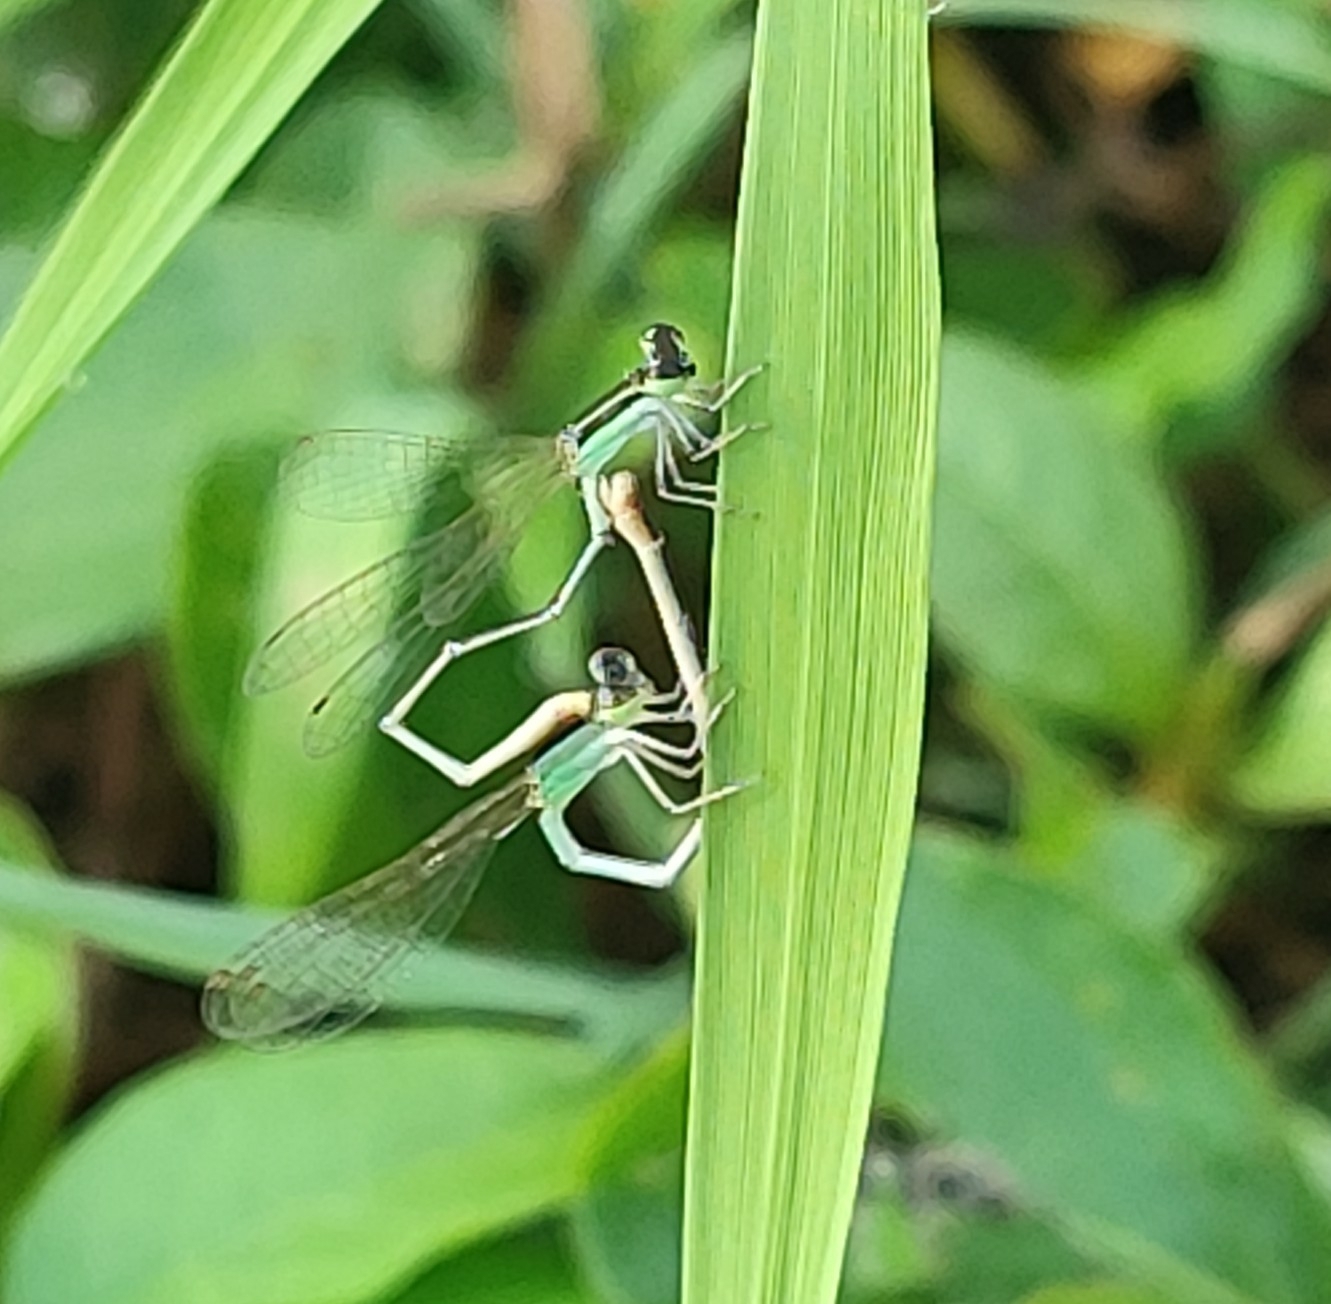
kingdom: Animalia
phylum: Arthropoda
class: Insecta
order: Odonata
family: Coenagrionidae
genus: Agriocnemis
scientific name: Agriocnemis pygmaea
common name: Pygmy wisp
